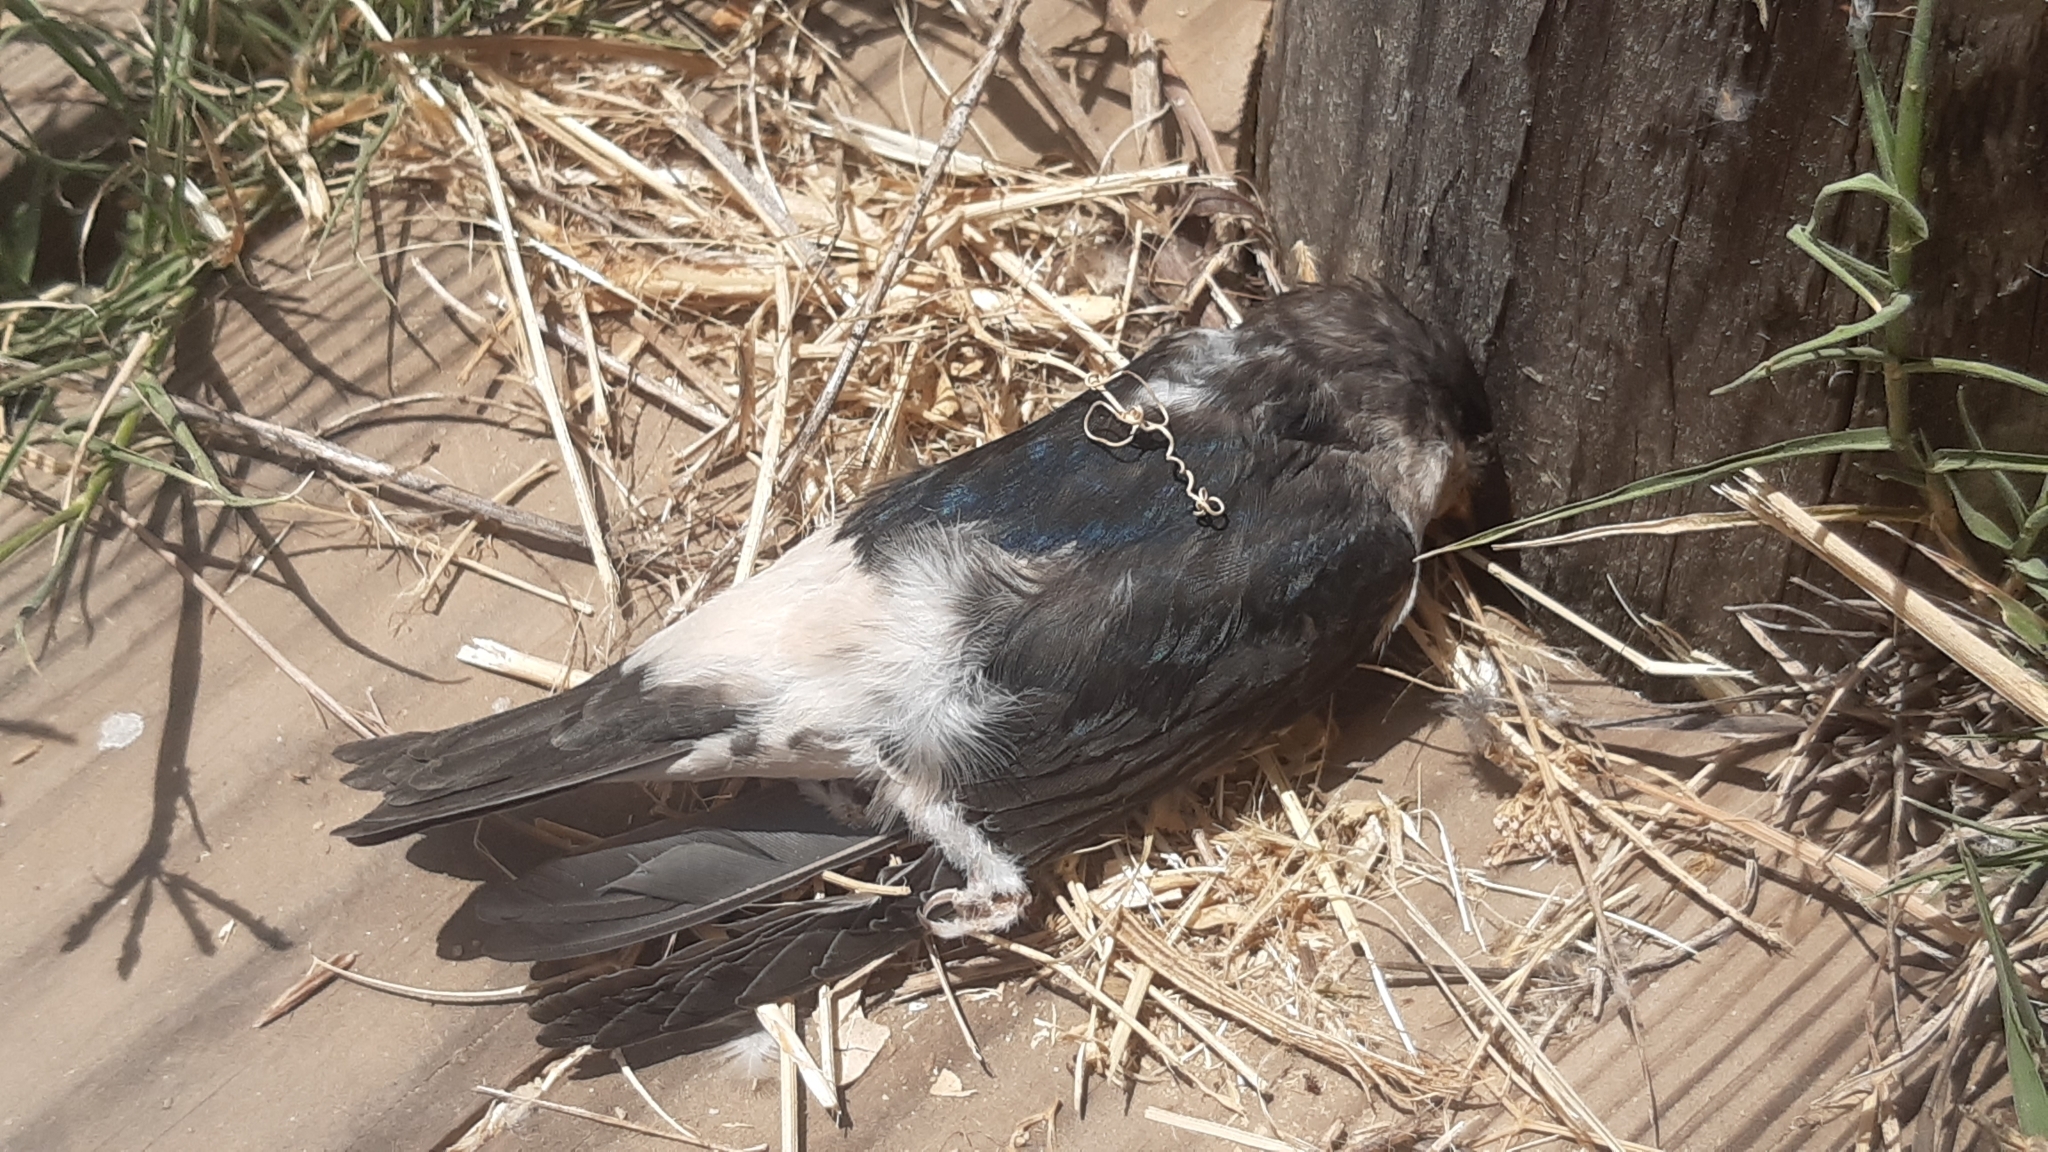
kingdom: Animalia
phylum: Chordata
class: Aves
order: Passeriformes
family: Hirundinidae
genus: Delichon
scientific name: Delichon urbicum
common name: Common house martin
